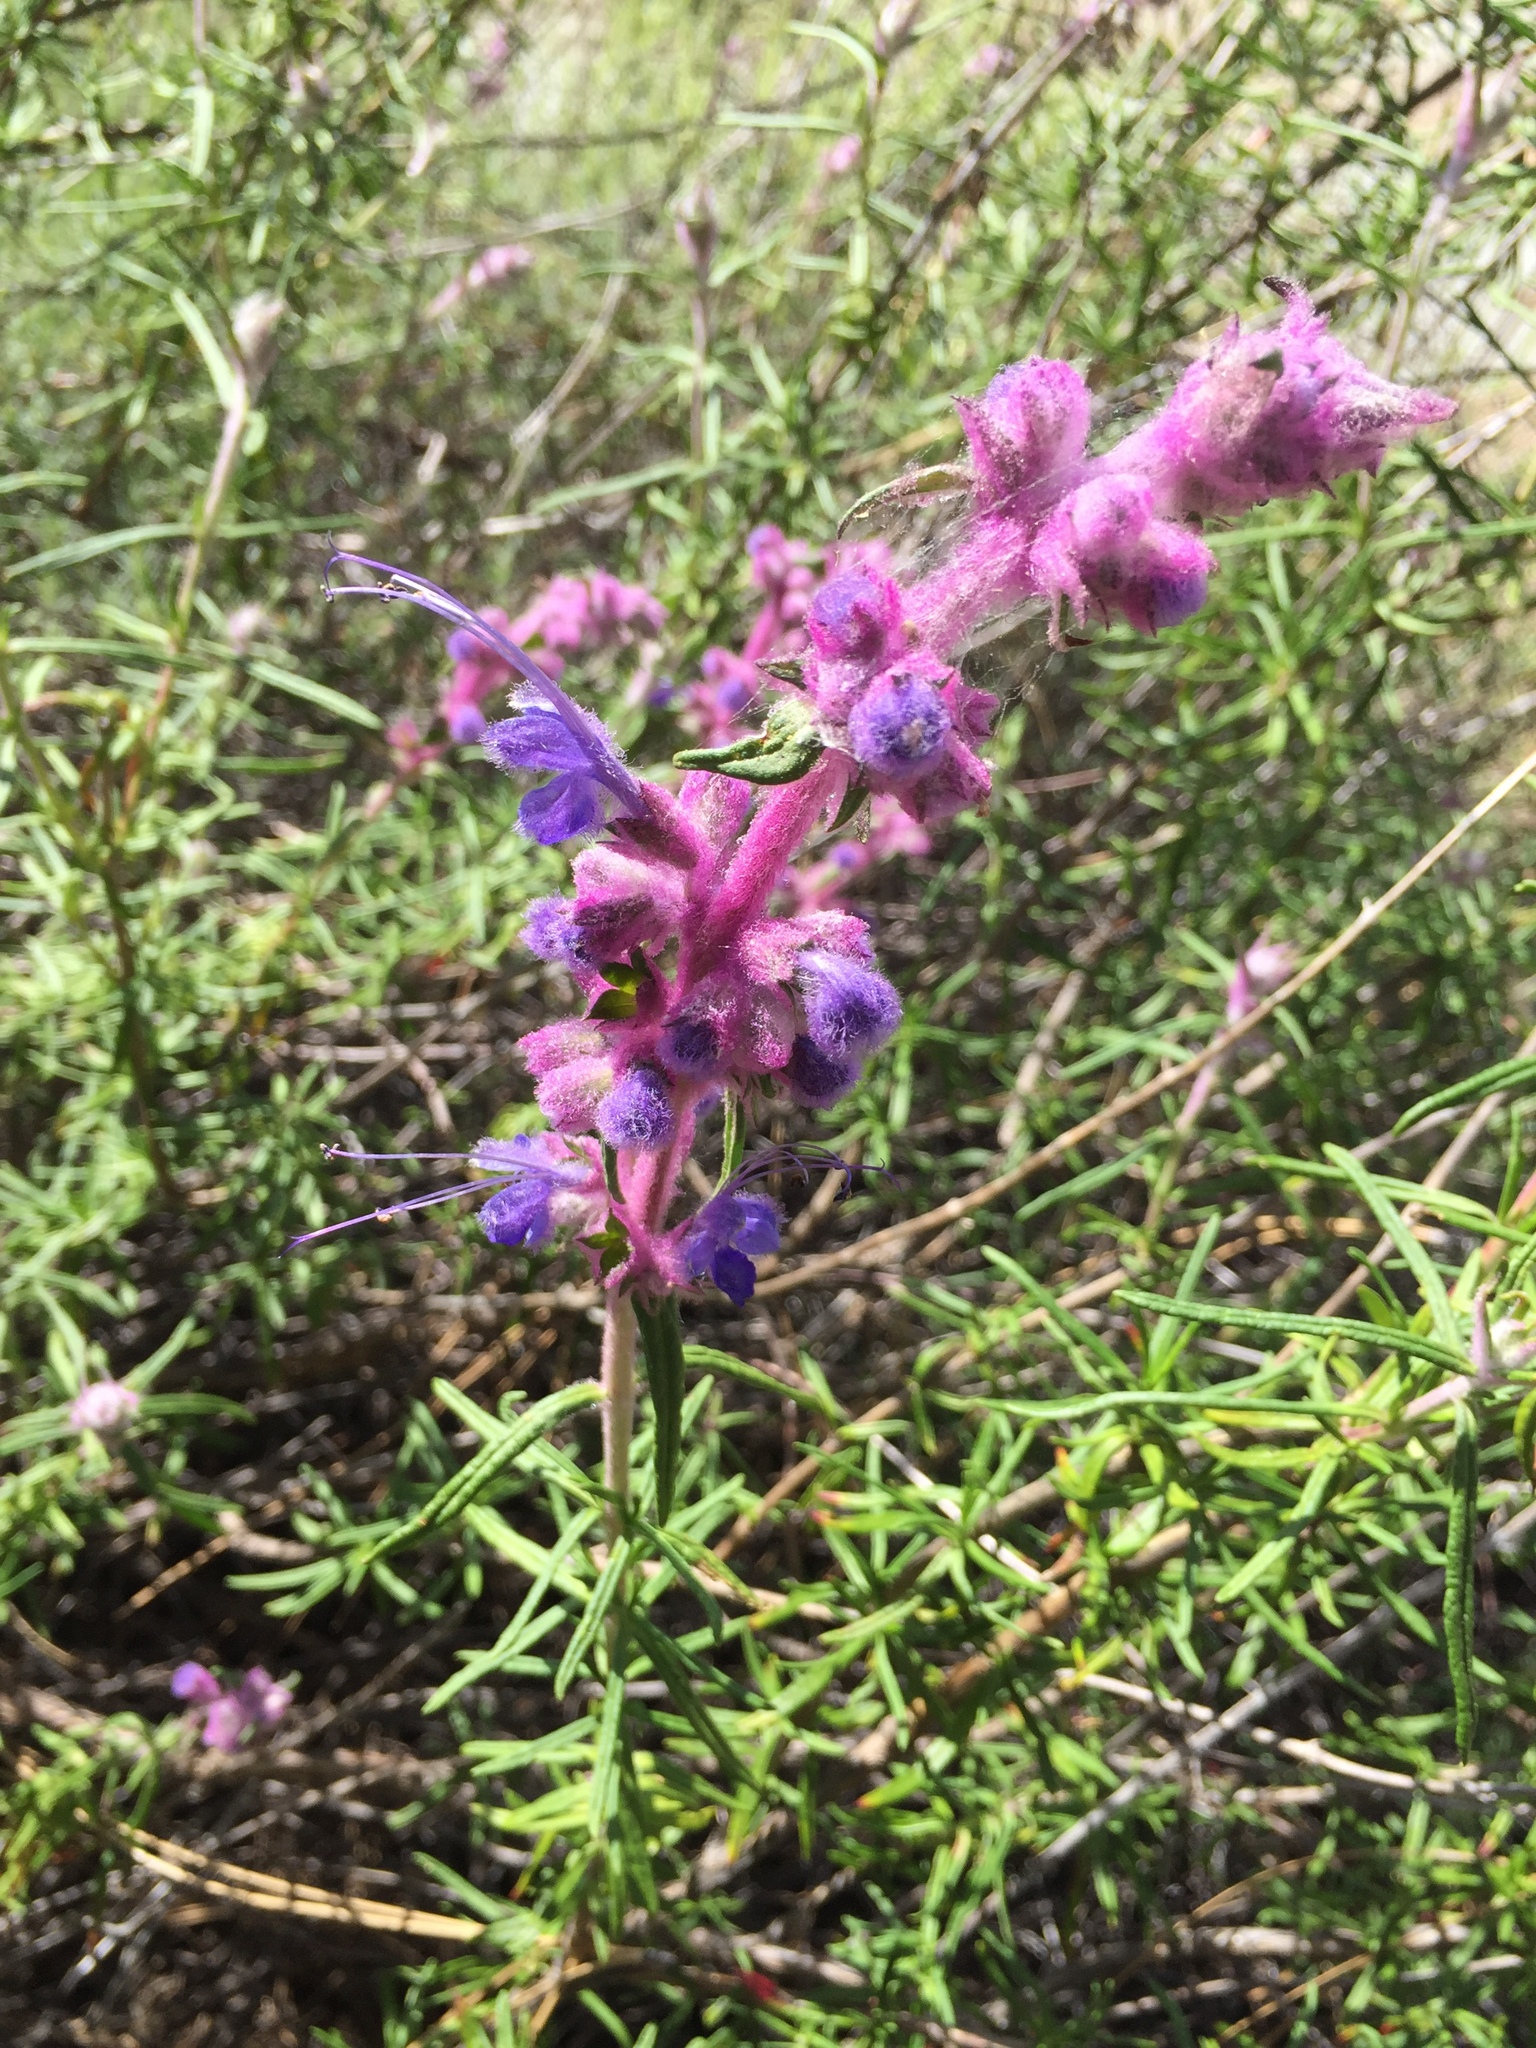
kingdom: Plantae
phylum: Tracheophyta
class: Magnoliopsida
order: Lamiales
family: Lamiaceae
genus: Trichostema
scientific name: Trichostema lanatum
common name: Woolly bluecurls
